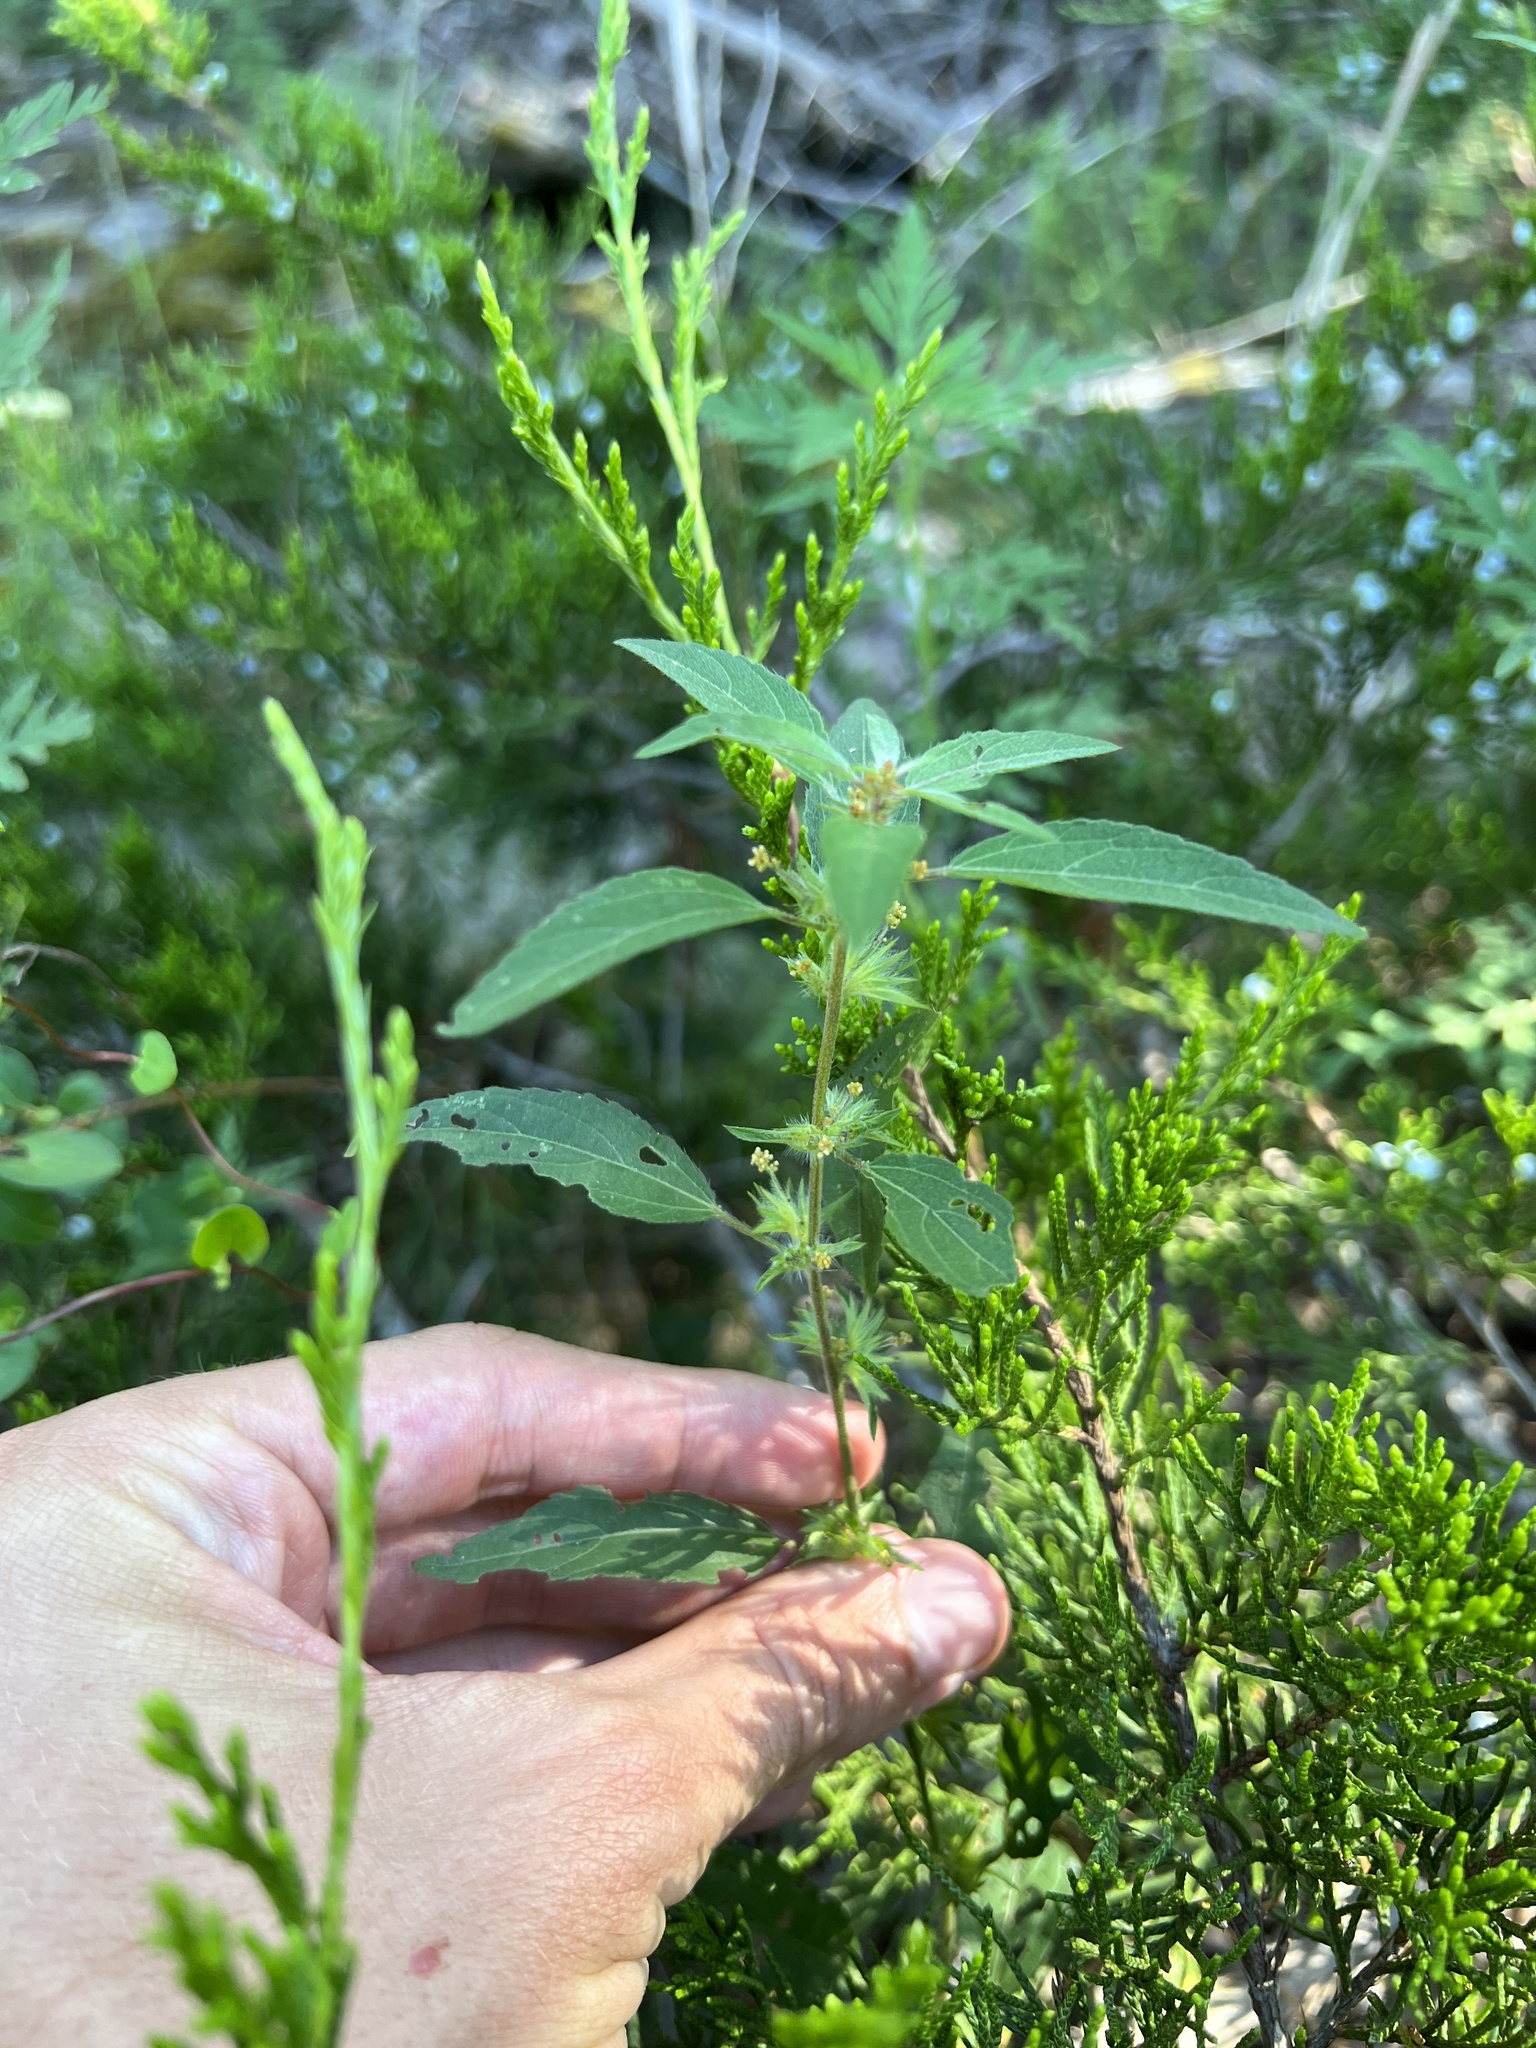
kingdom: Plantae
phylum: Tracheophyta
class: Magnoliopsida
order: Malpighiales
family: Euphorbiaceae
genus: Acalypha
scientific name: Acalypha gracilens
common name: Slender three-seeded mercury
